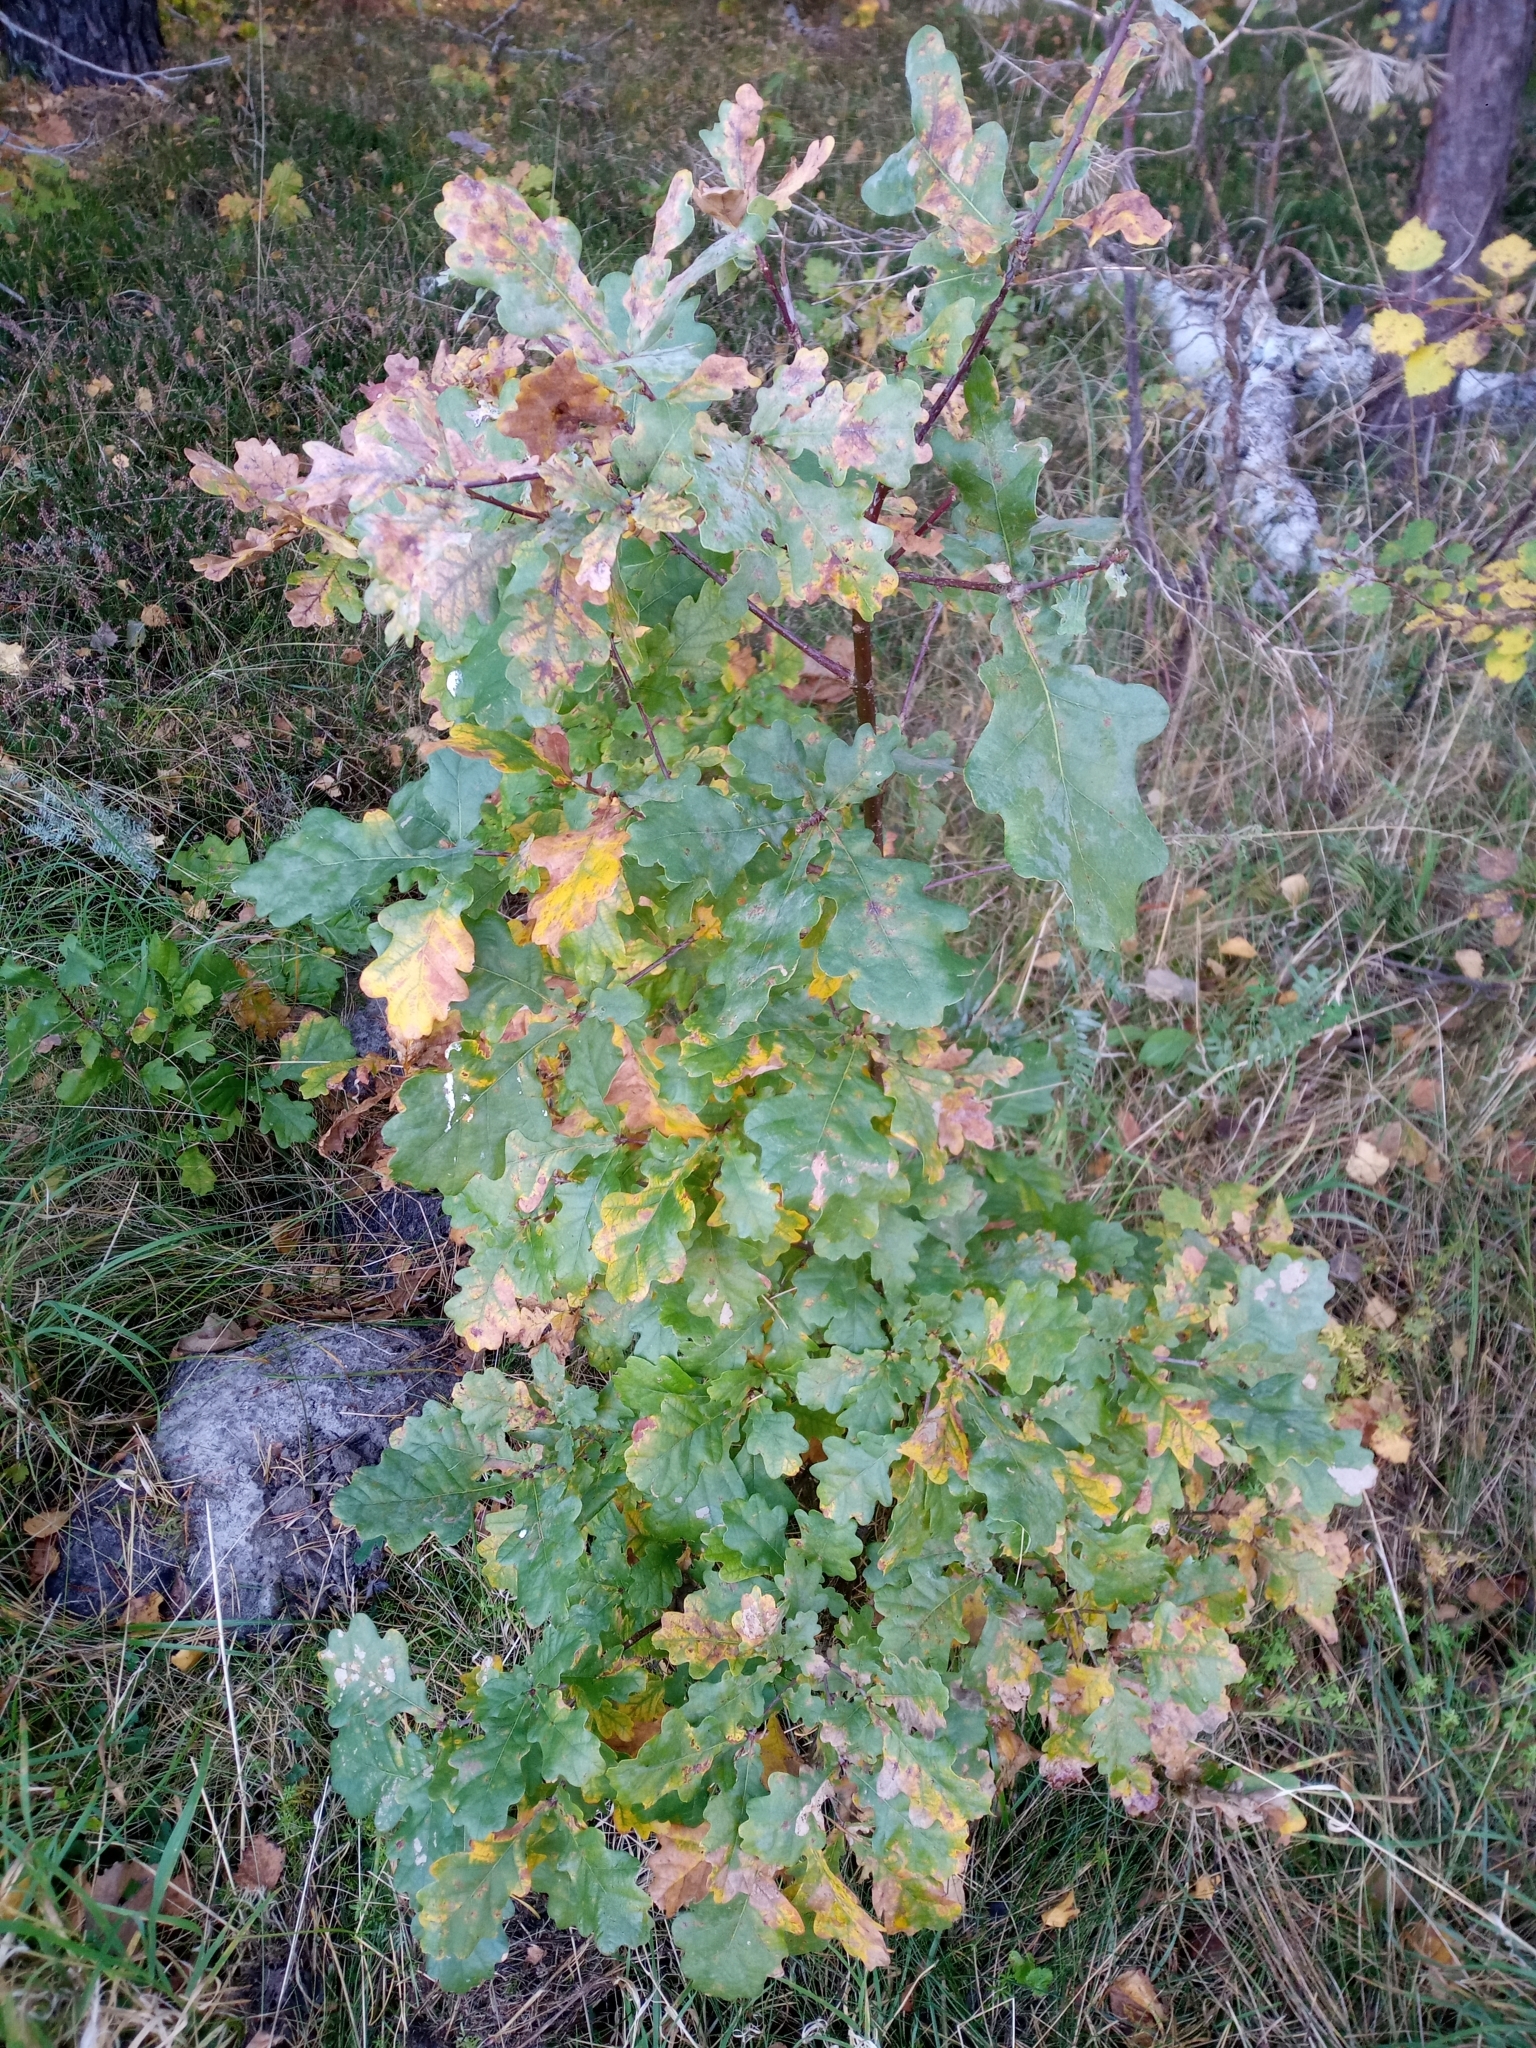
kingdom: Plantae
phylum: Tracheophyta
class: Magnoliopsida
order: Fagales
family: Fagaceae
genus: Quercus
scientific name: Quercus robur
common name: Pedunculate oak
